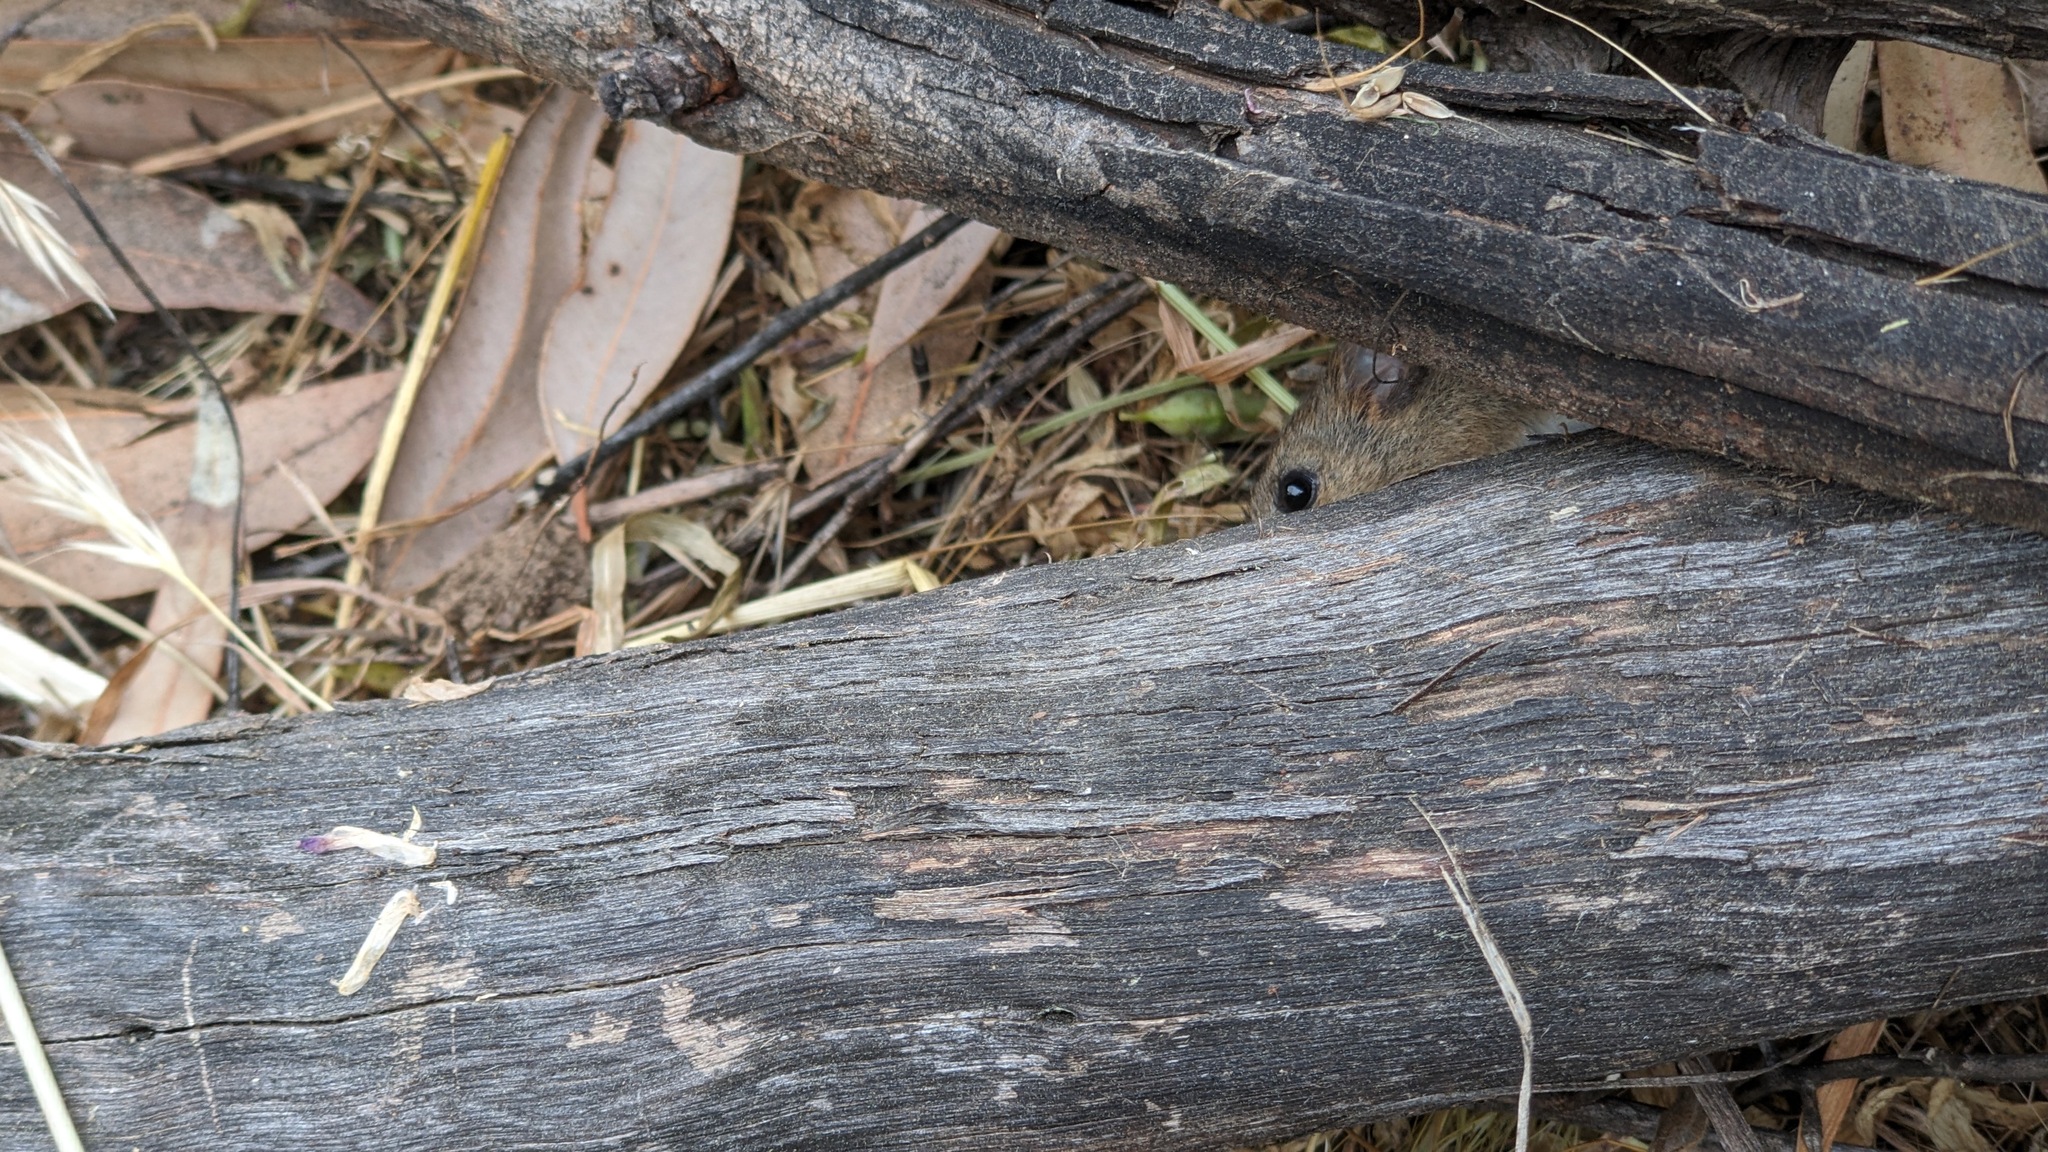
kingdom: Animalia
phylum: Chordata
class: Mammalia
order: Rodentia
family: Cricetidae
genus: Reithrodontomys
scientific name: Reithrodontomys megalotis
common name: Western harvest mouse
